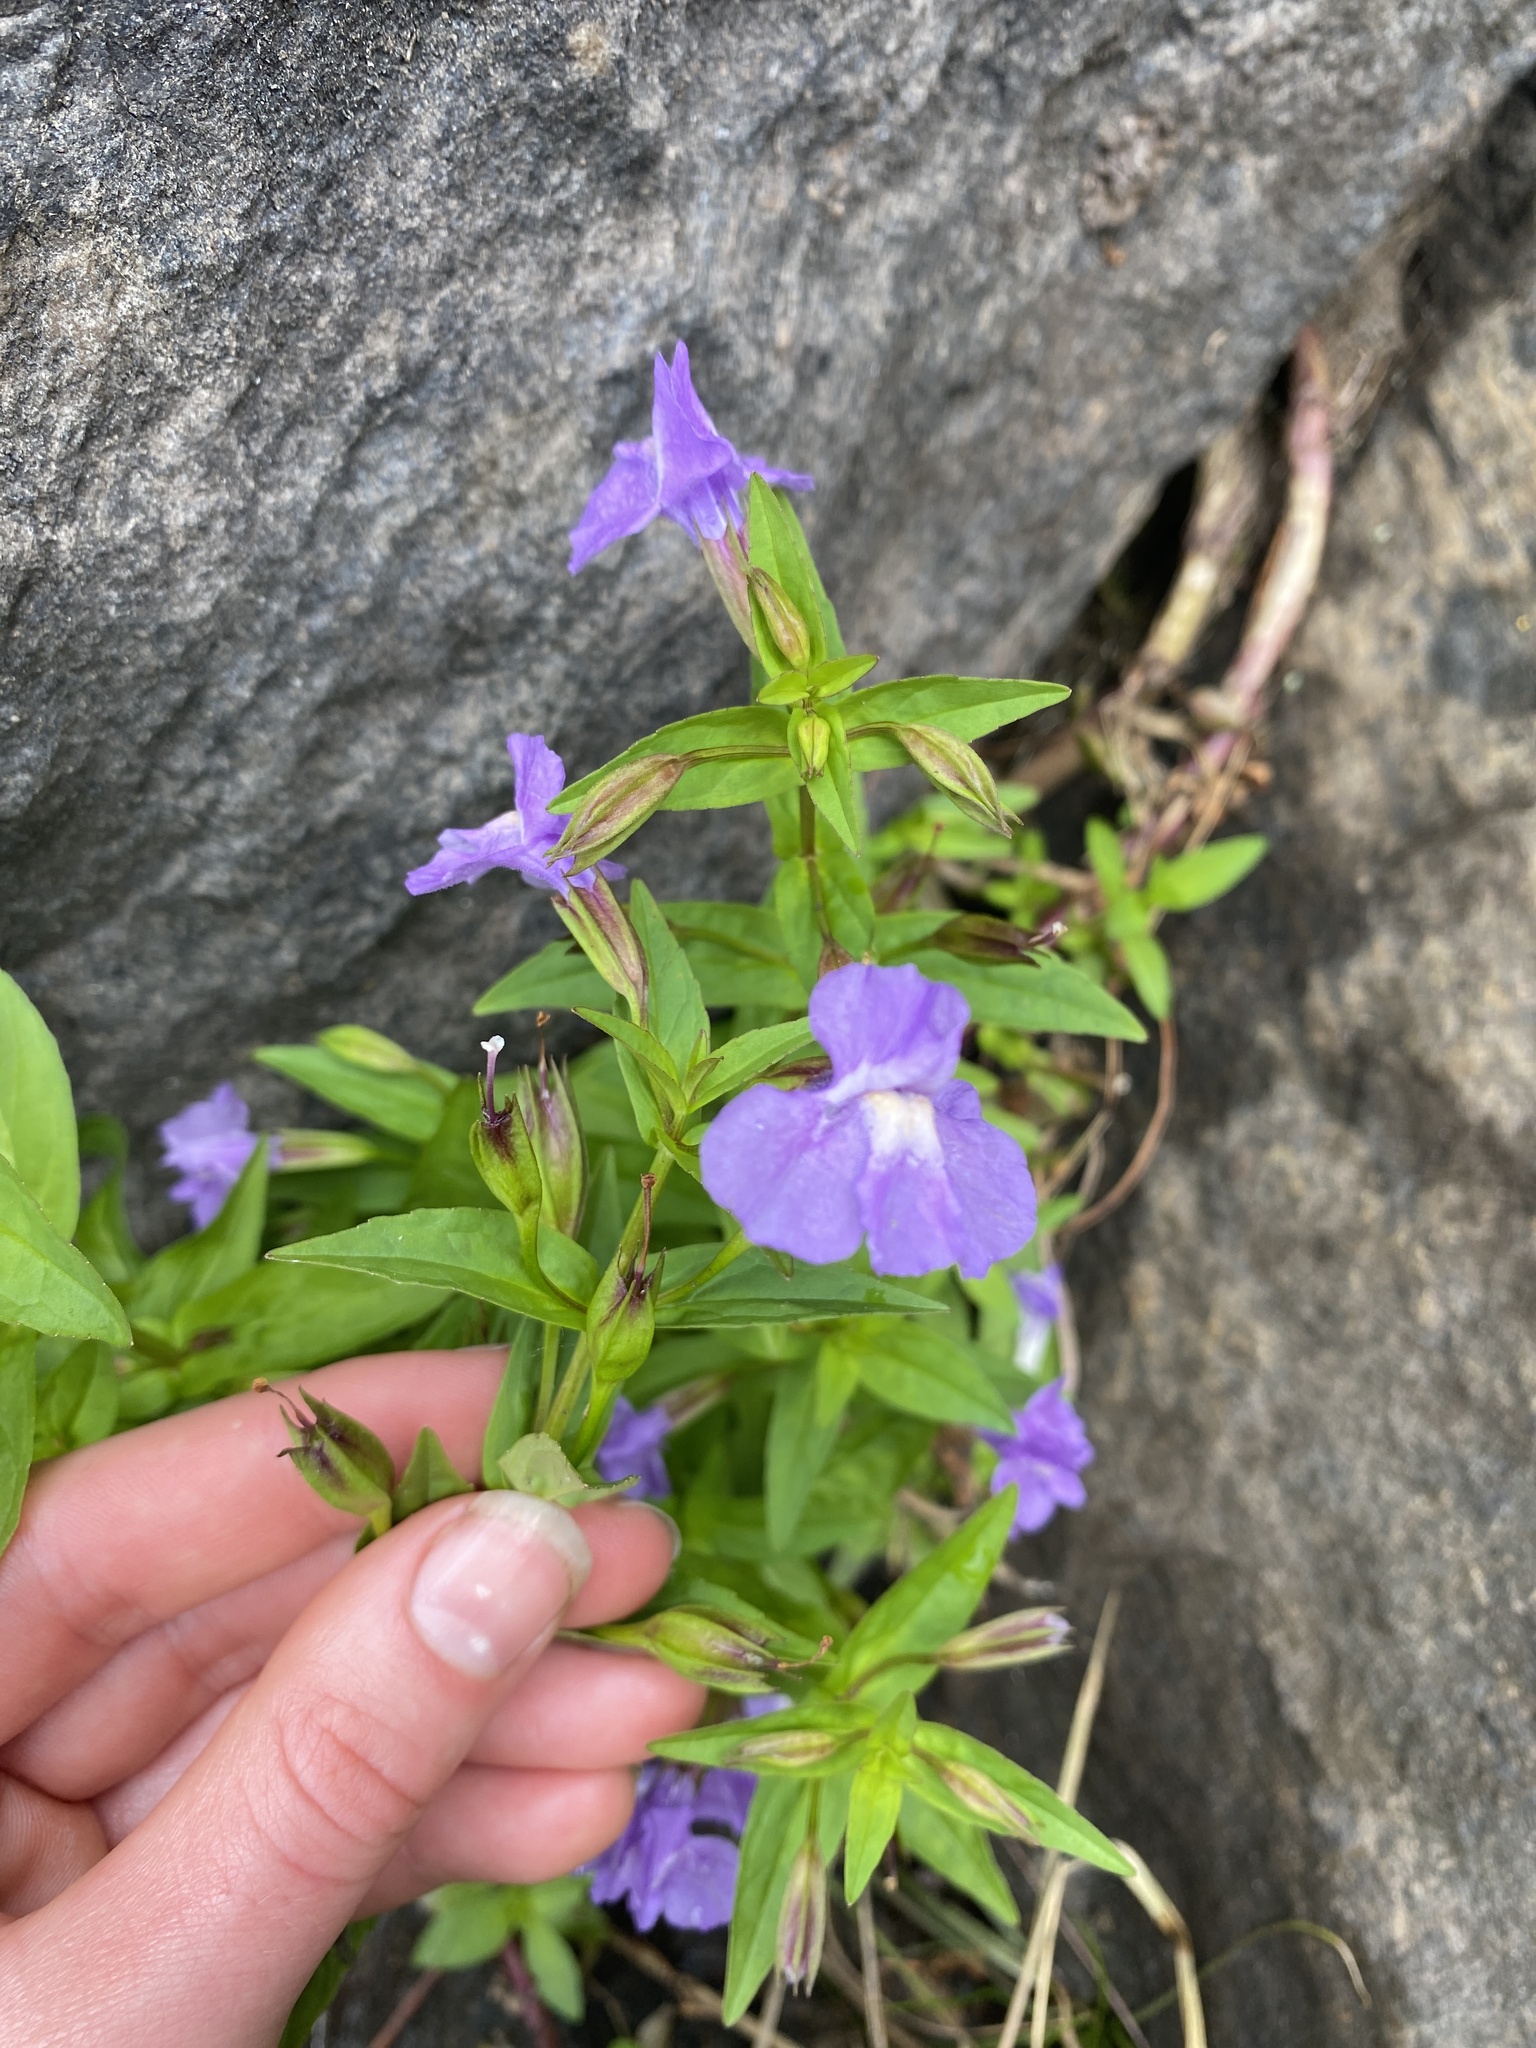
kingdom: Plantae
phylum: Tracheophyta
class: Magnoliopsida
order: Lamiales
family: Phrymaceae
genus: Mimulus
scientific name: Mimulus ringens
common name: Allegheny monkeyflower
